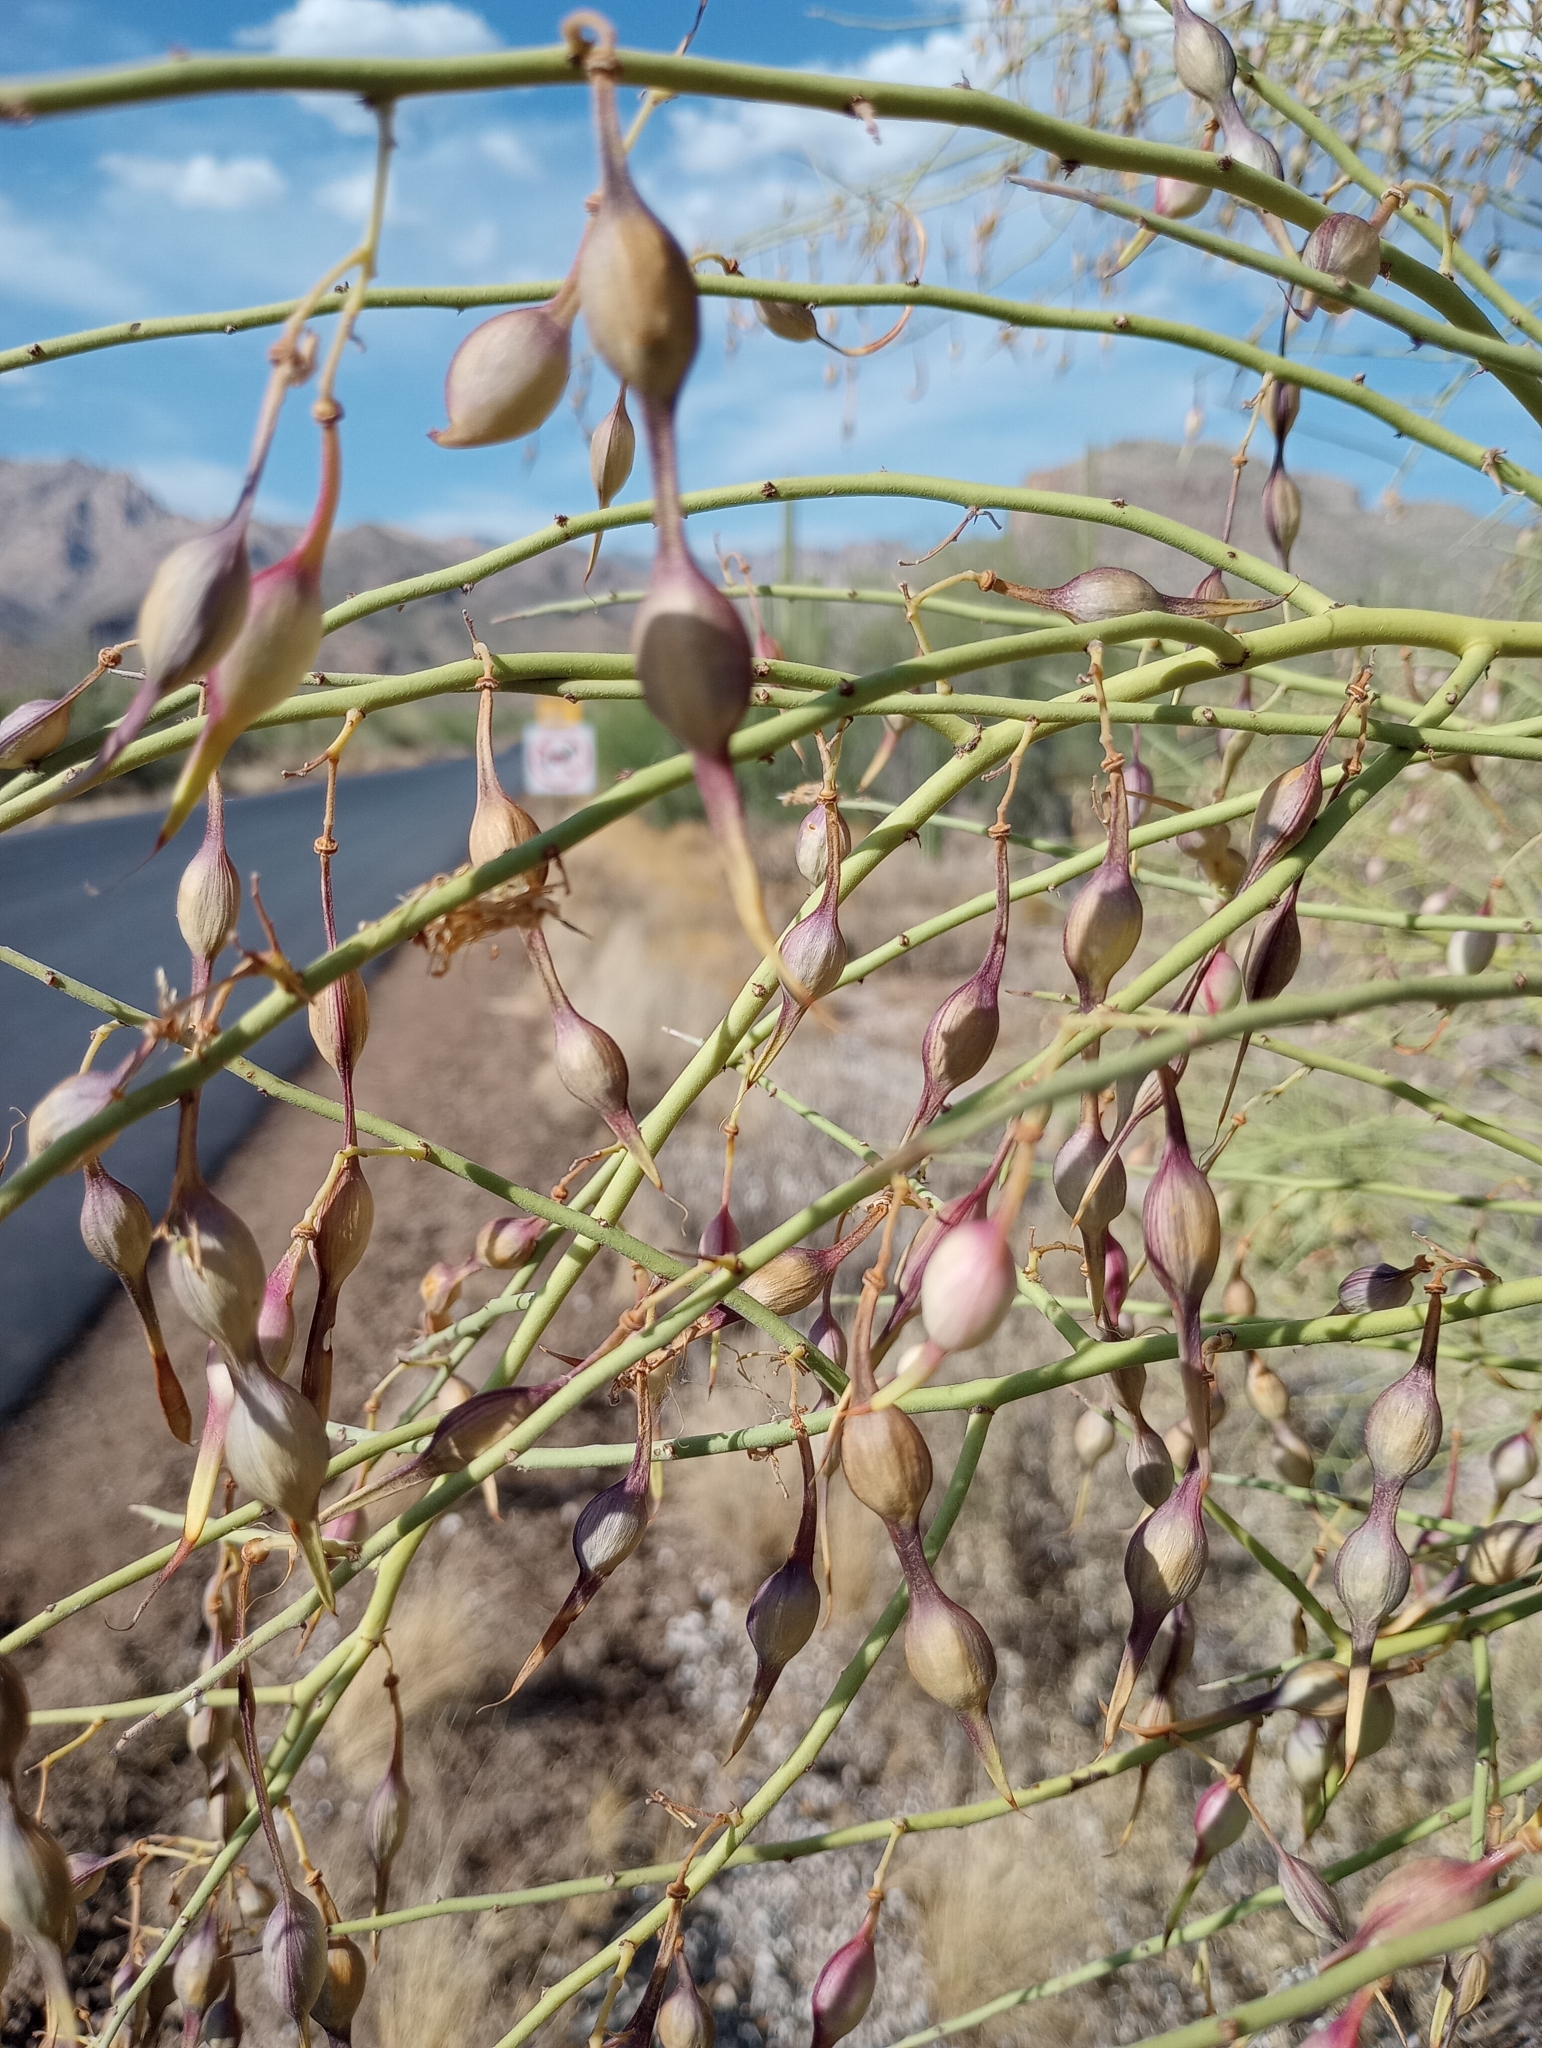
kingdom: Plantae
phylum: Tracheophyta
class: Magnoliopsida
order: Fabales
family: Fabaceae
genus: Parkinsonia
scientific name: Parkinsonia microphylla
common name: Yellow paloverde
